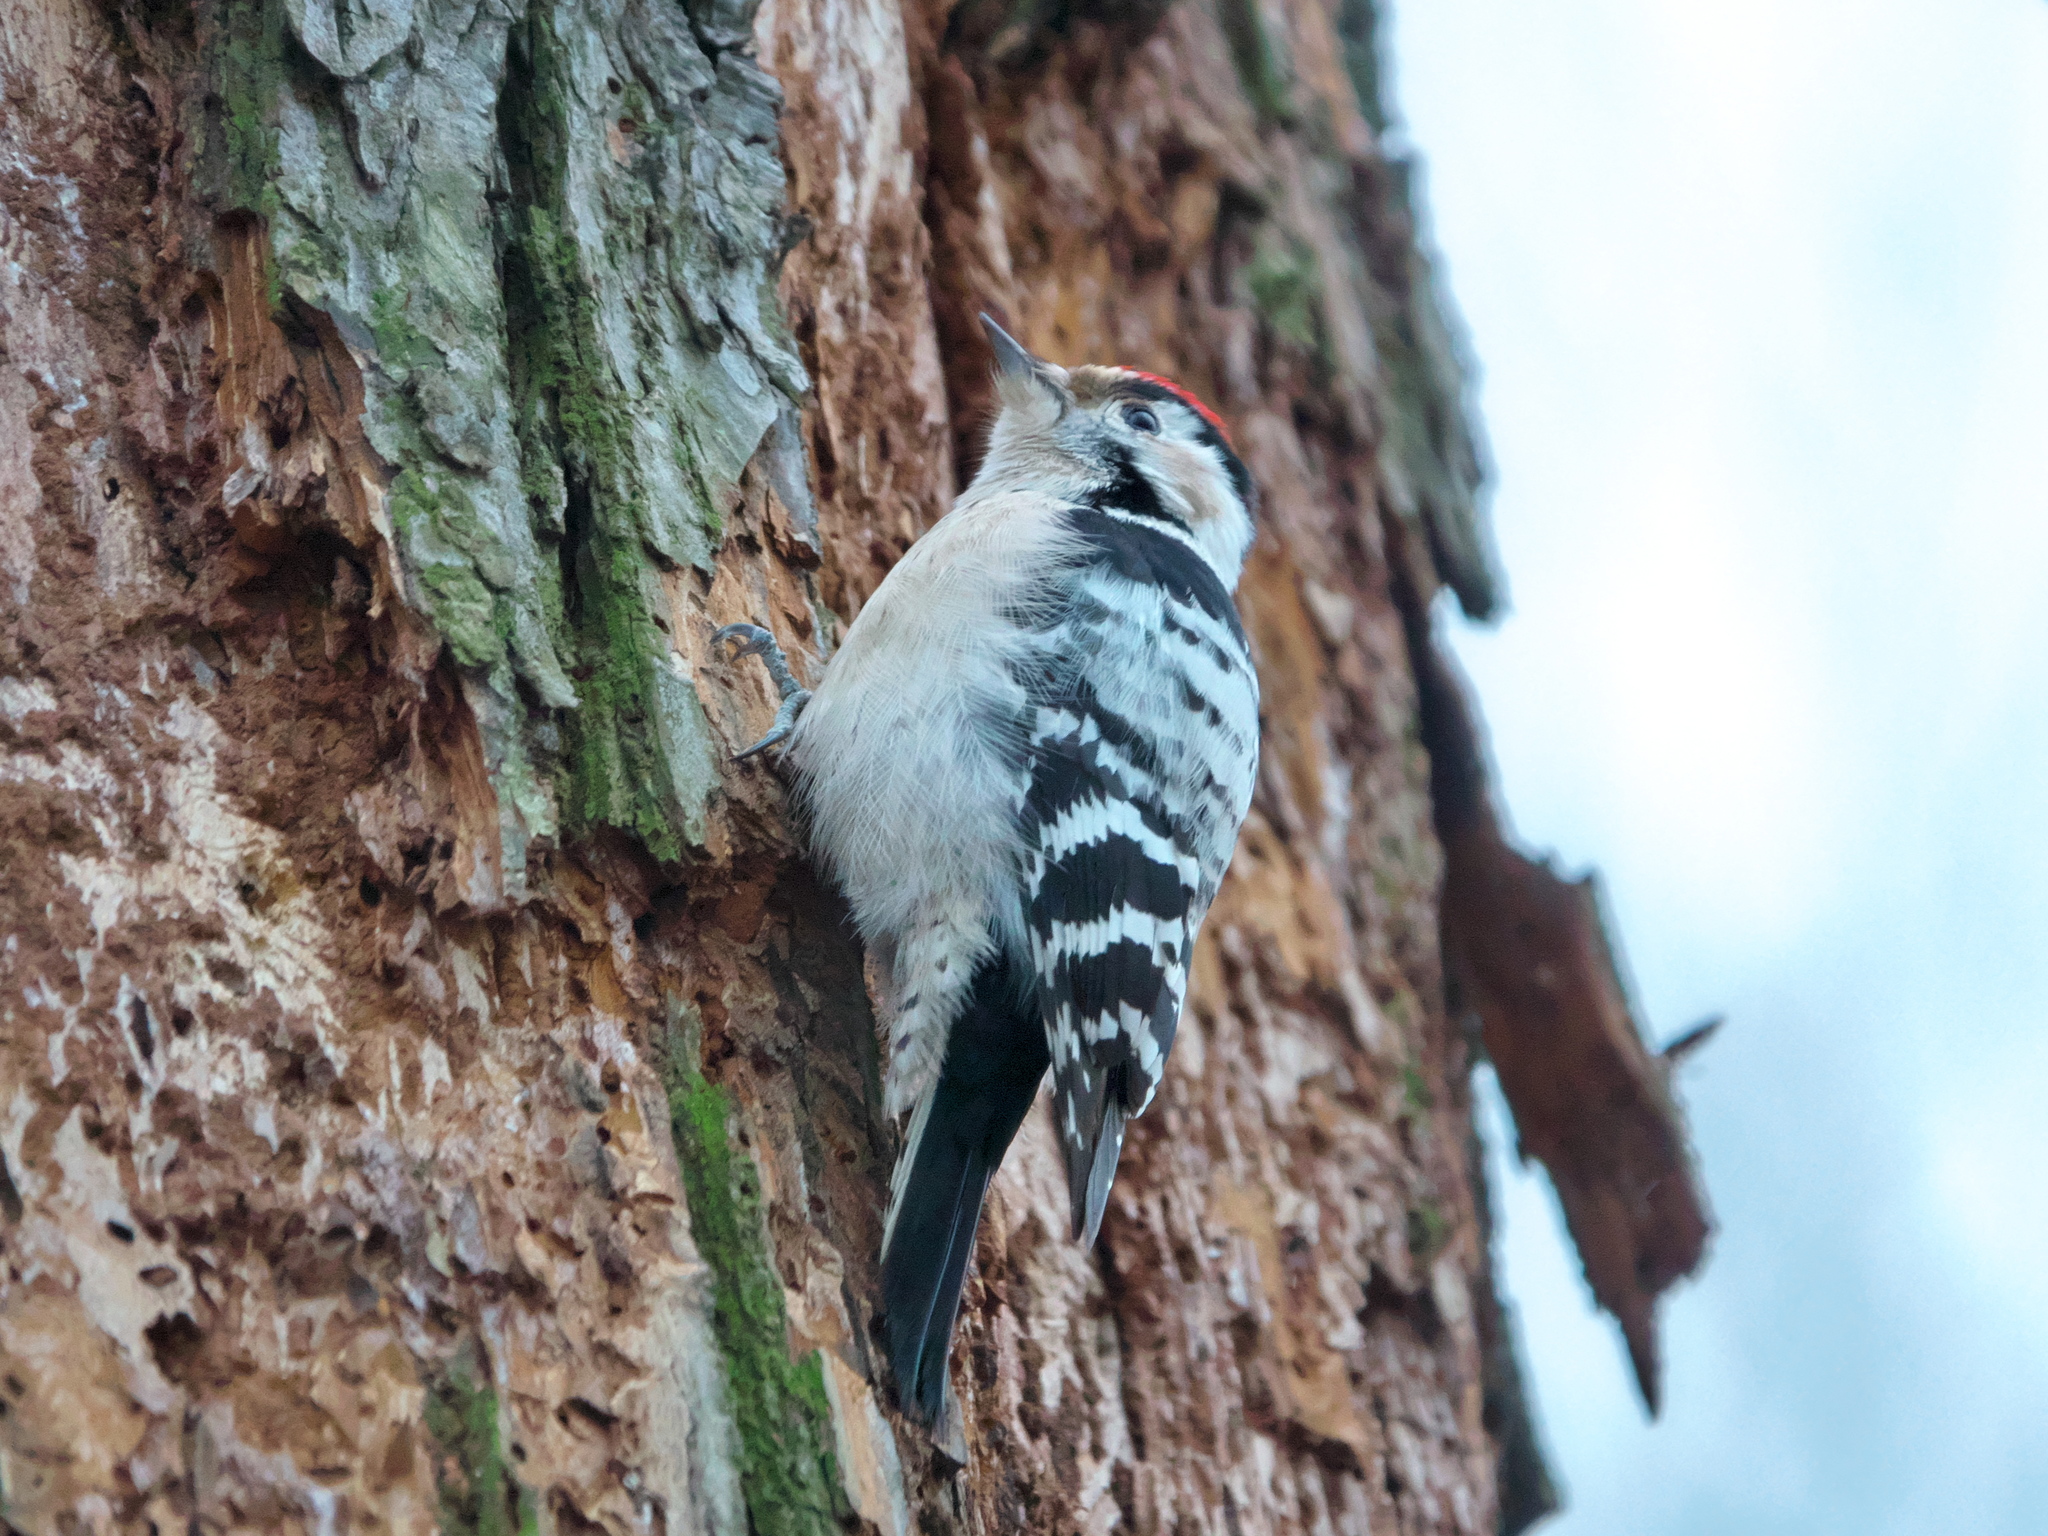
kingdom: Animalia
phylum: Chordata
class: Aves
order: Piciformes
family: Picidae
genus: Dryobates
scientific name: Dryobates minor
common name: Lesser spotted woodpecker
